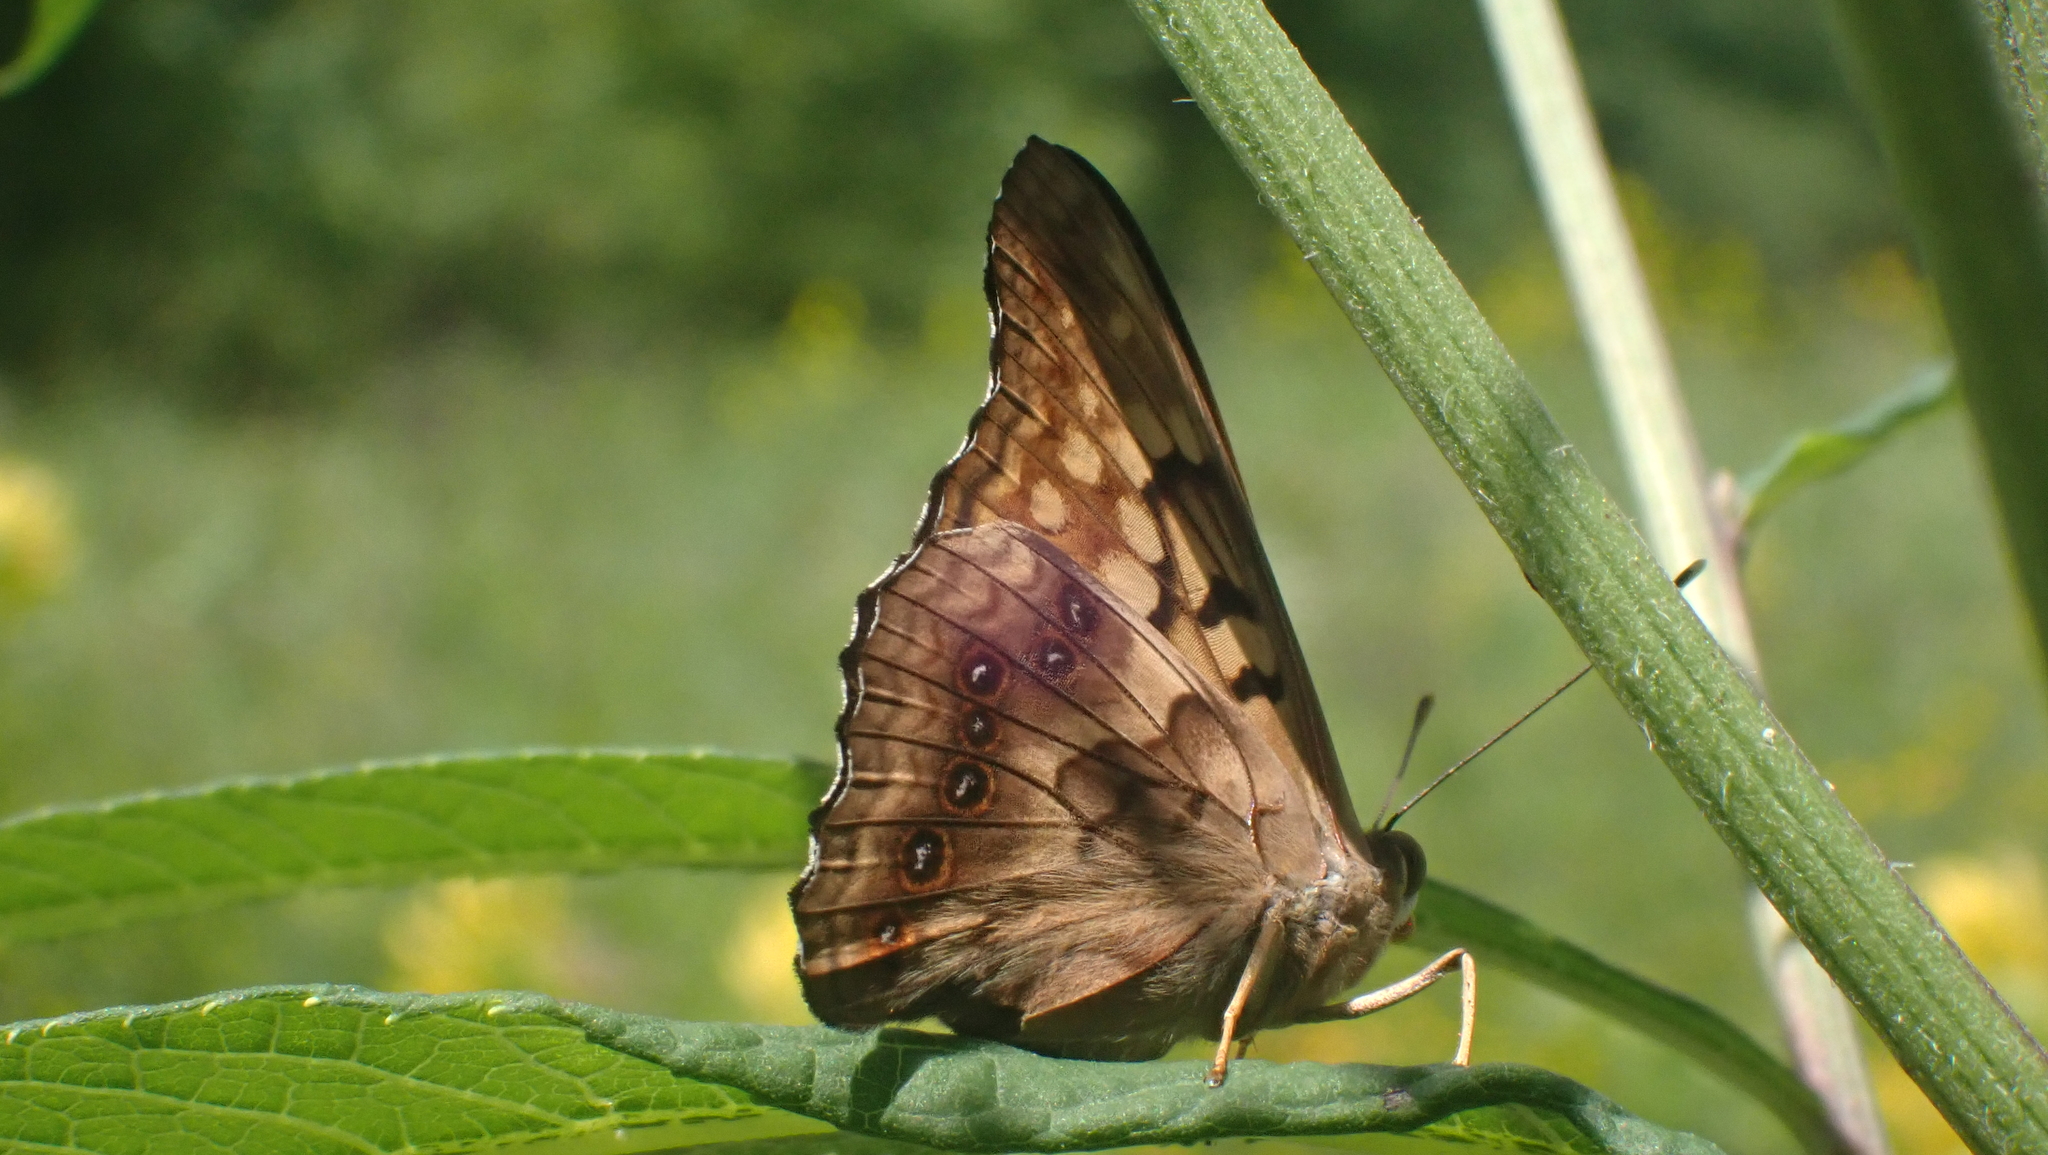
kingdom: Animalia
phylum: Arthropoda
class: Insecta
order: Lepidoptera
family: Nymphalidae
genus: Asterocampa
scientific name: Asterocampa clyton
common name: Tawny emperor
